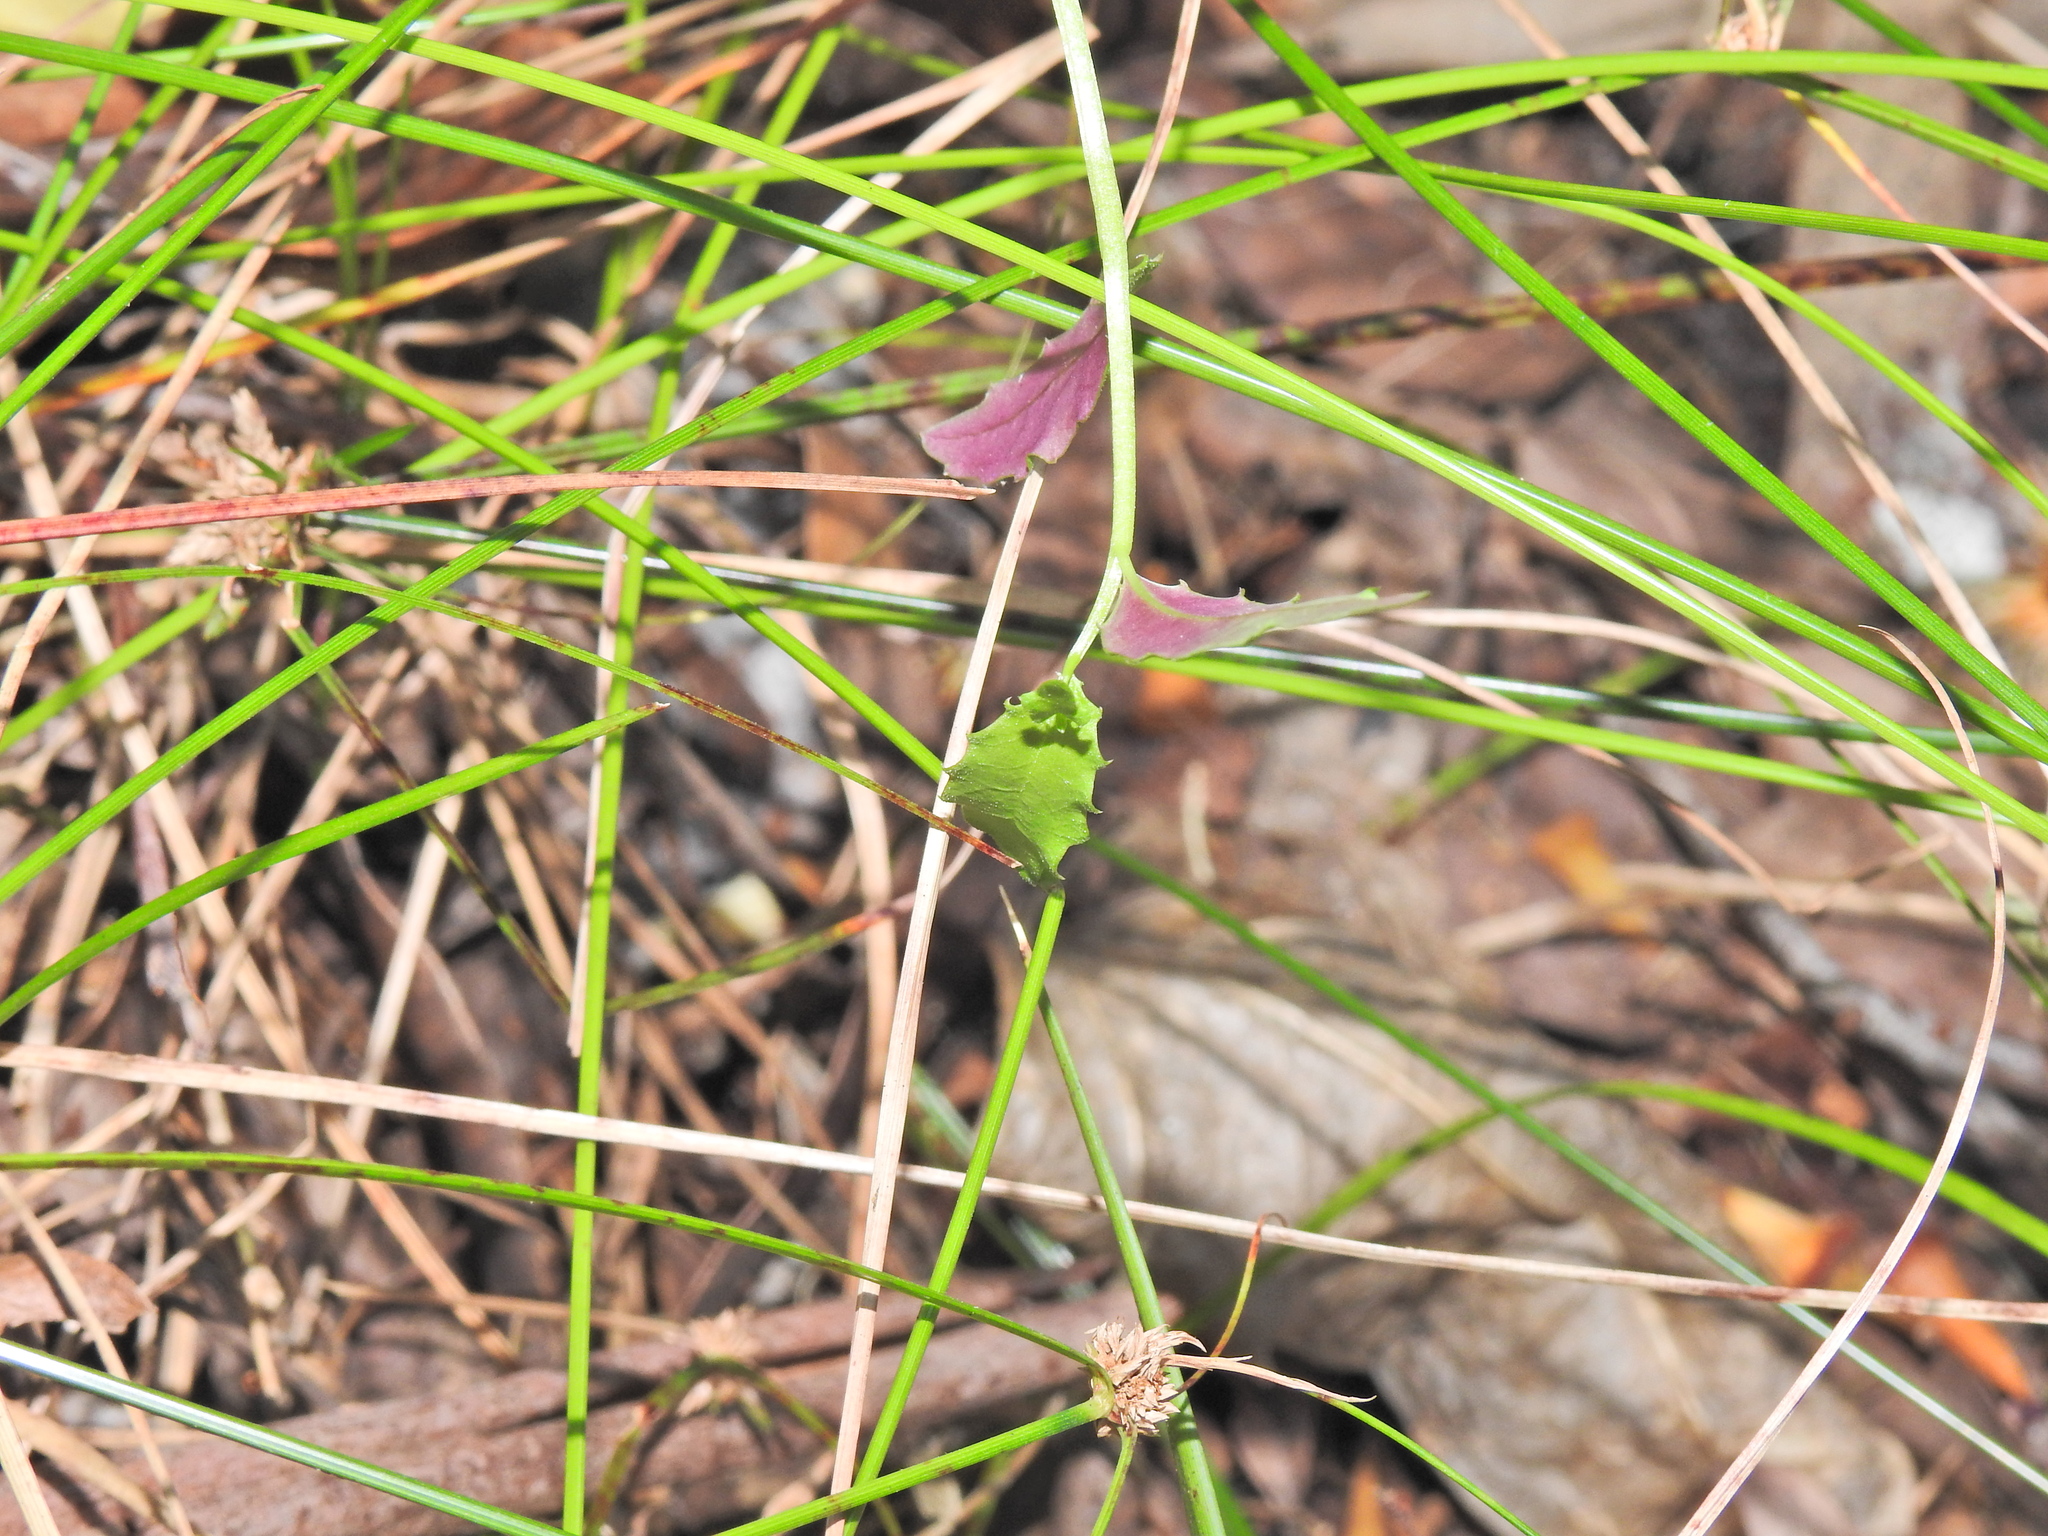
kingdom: Plantae
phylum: Tracheophyta
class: Magnoliopsida
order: Asterales
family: Campanulaceae
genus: Lobelia
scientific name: Lobelia purpurascens
